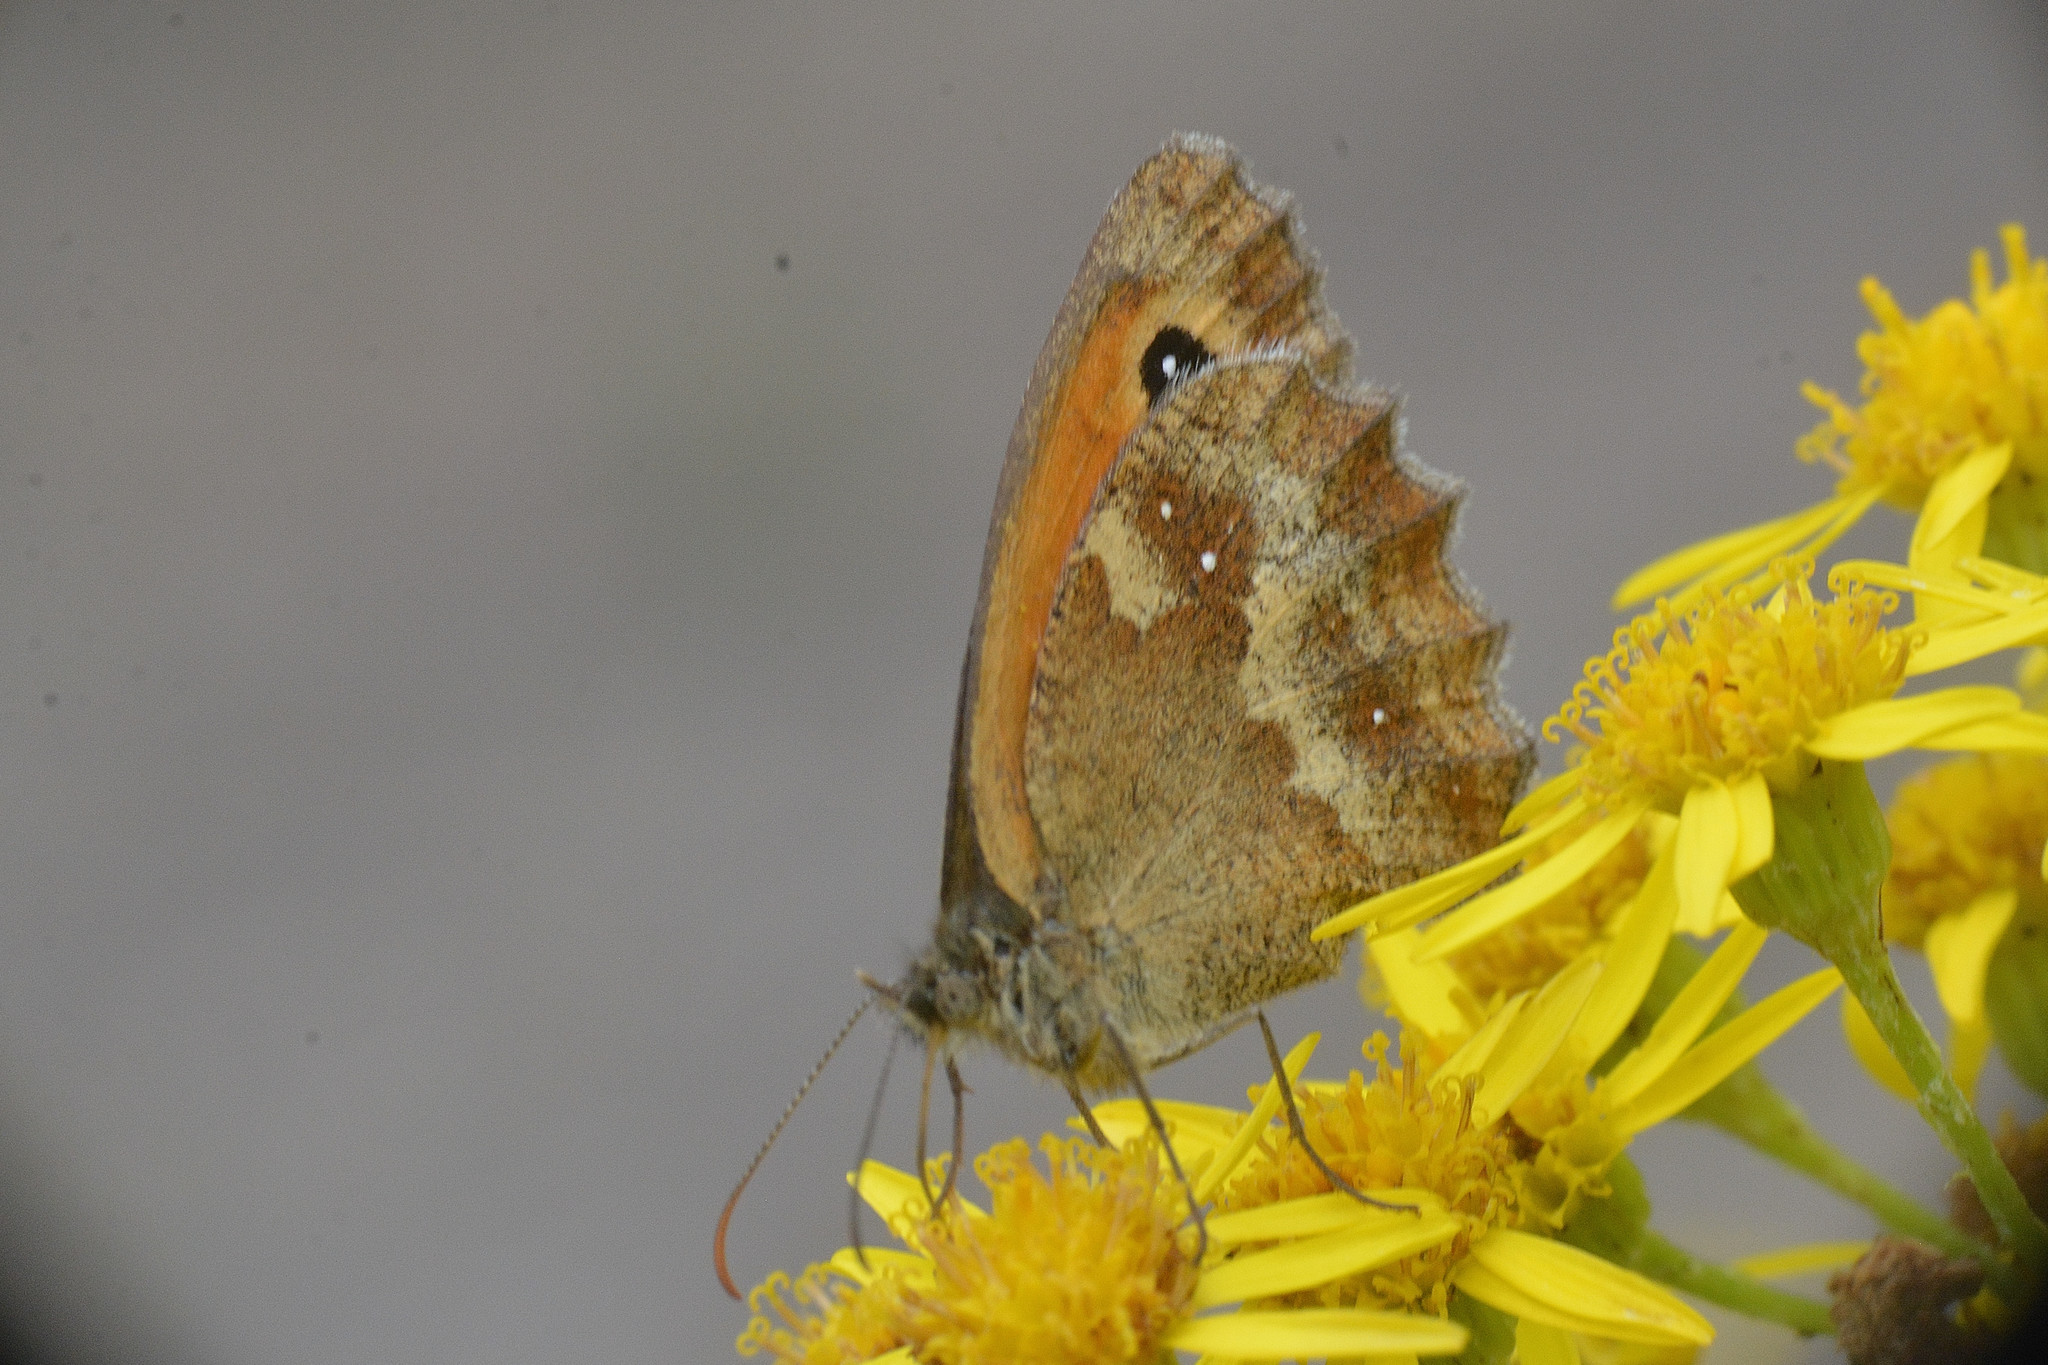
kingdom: Animalia
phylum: Arthropoda
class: Insecta
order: Lepidoptera
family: Nymphalidae
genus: Pyronia
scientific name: Pyronia tithonus
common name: Gatekeeper
